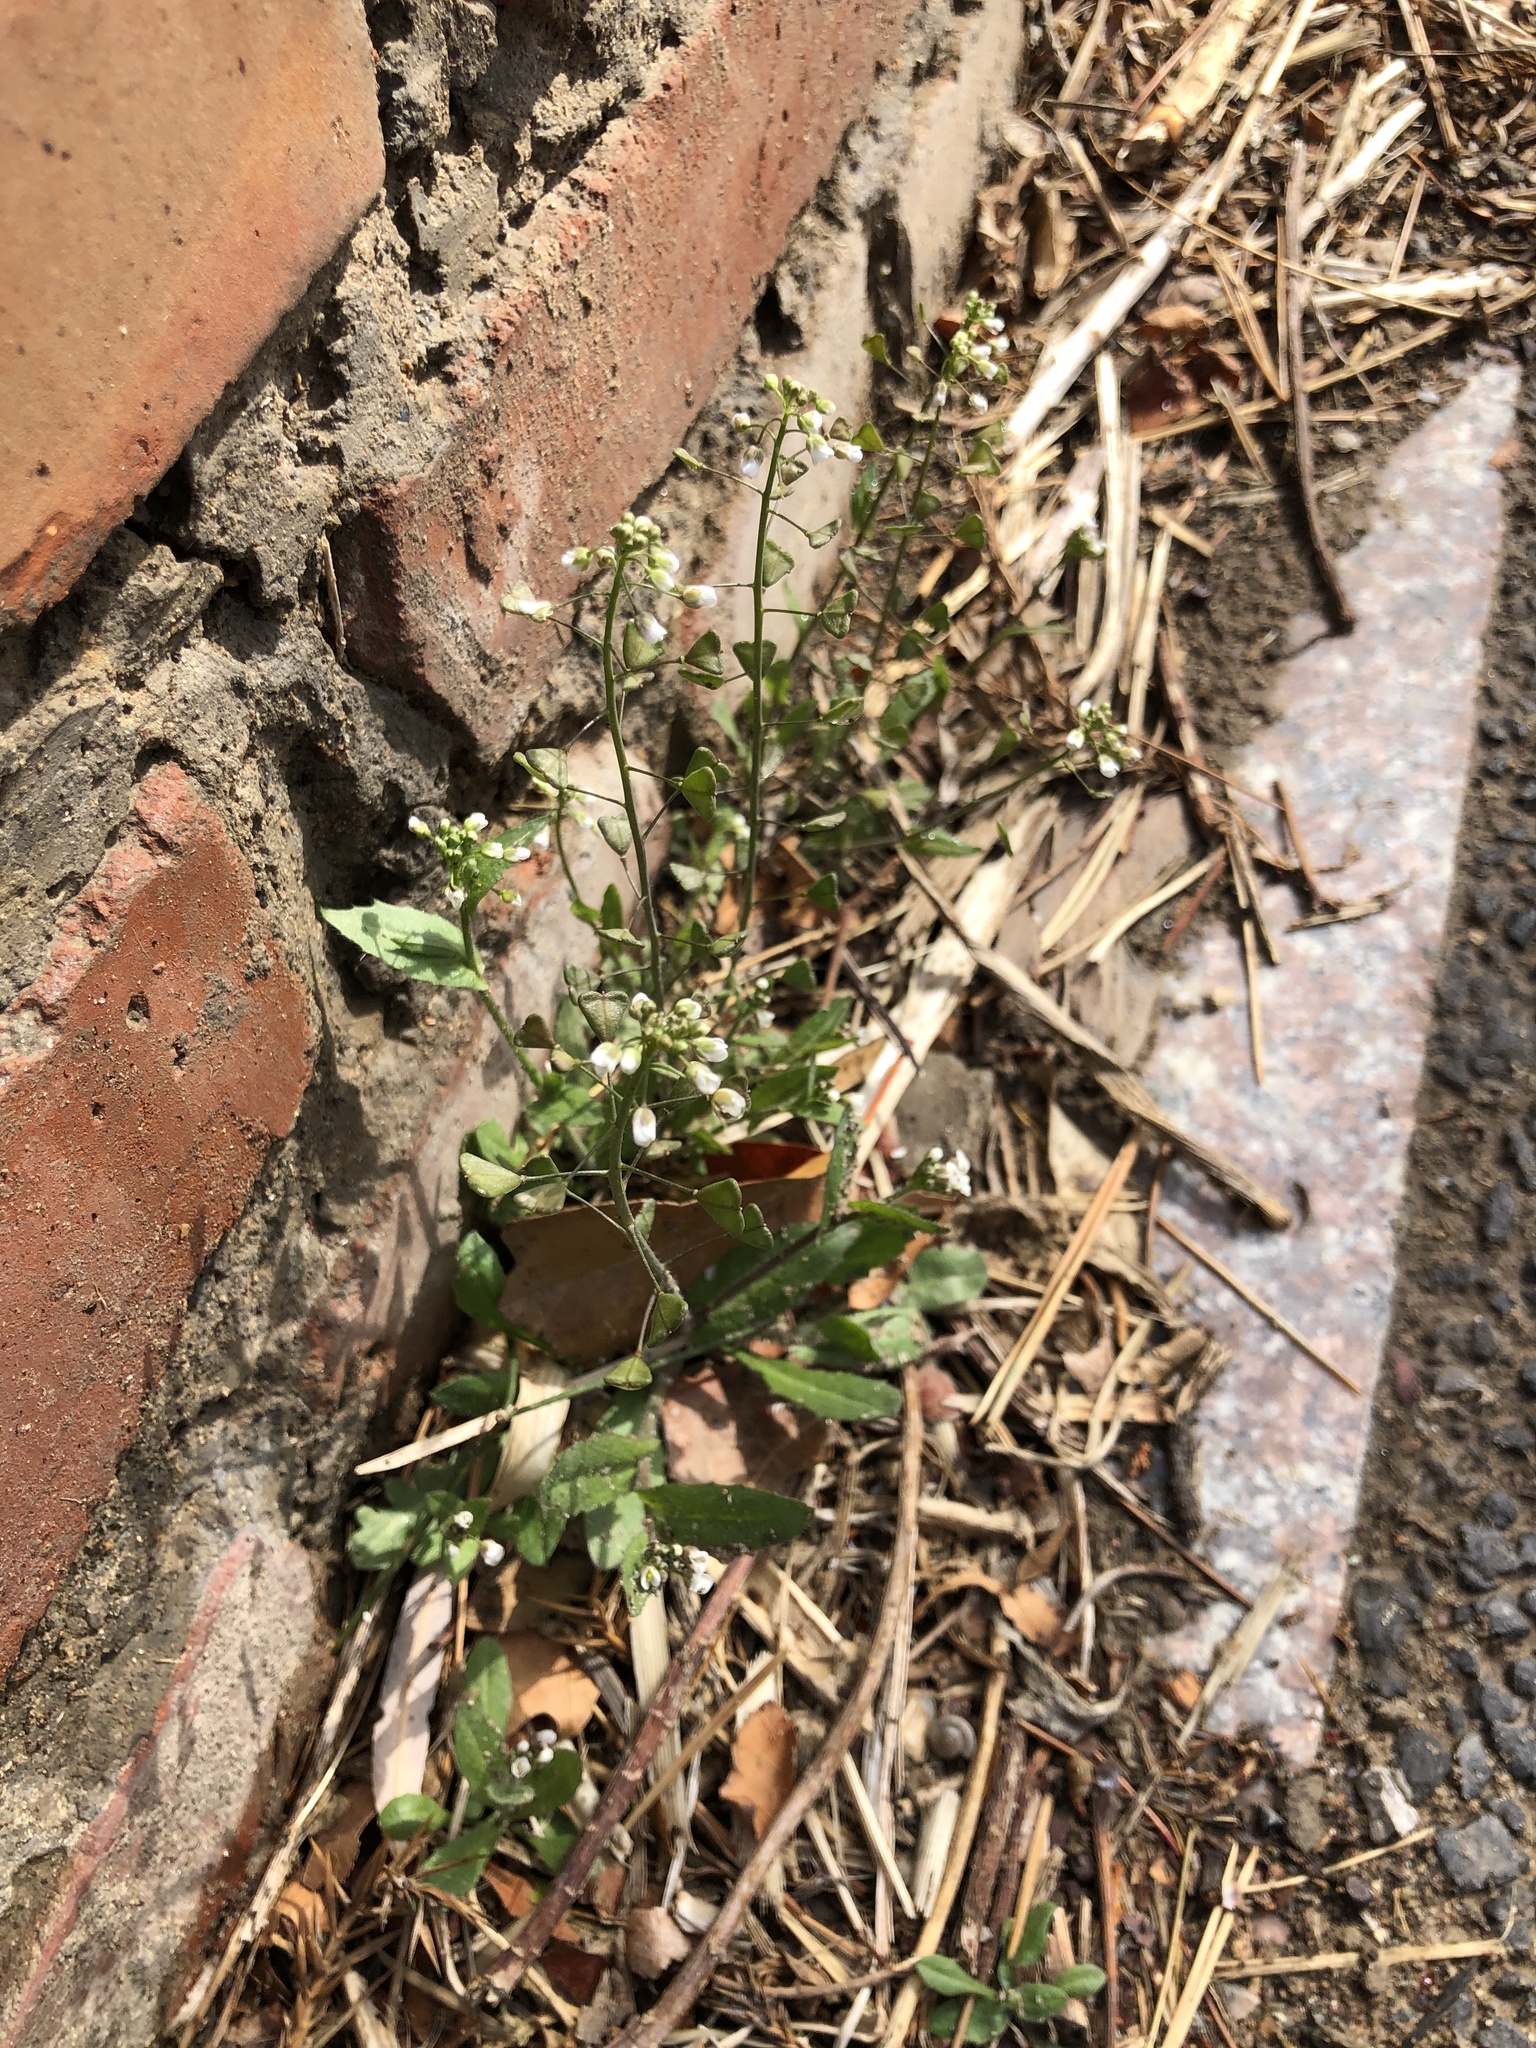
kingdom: Plantae
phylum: Tracheophyta
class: Magnoliopsida
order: Brassicales
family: Brassicaceae
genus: Capsella
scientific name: Capsella bursa-pastoris
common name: Shepherd's purse
